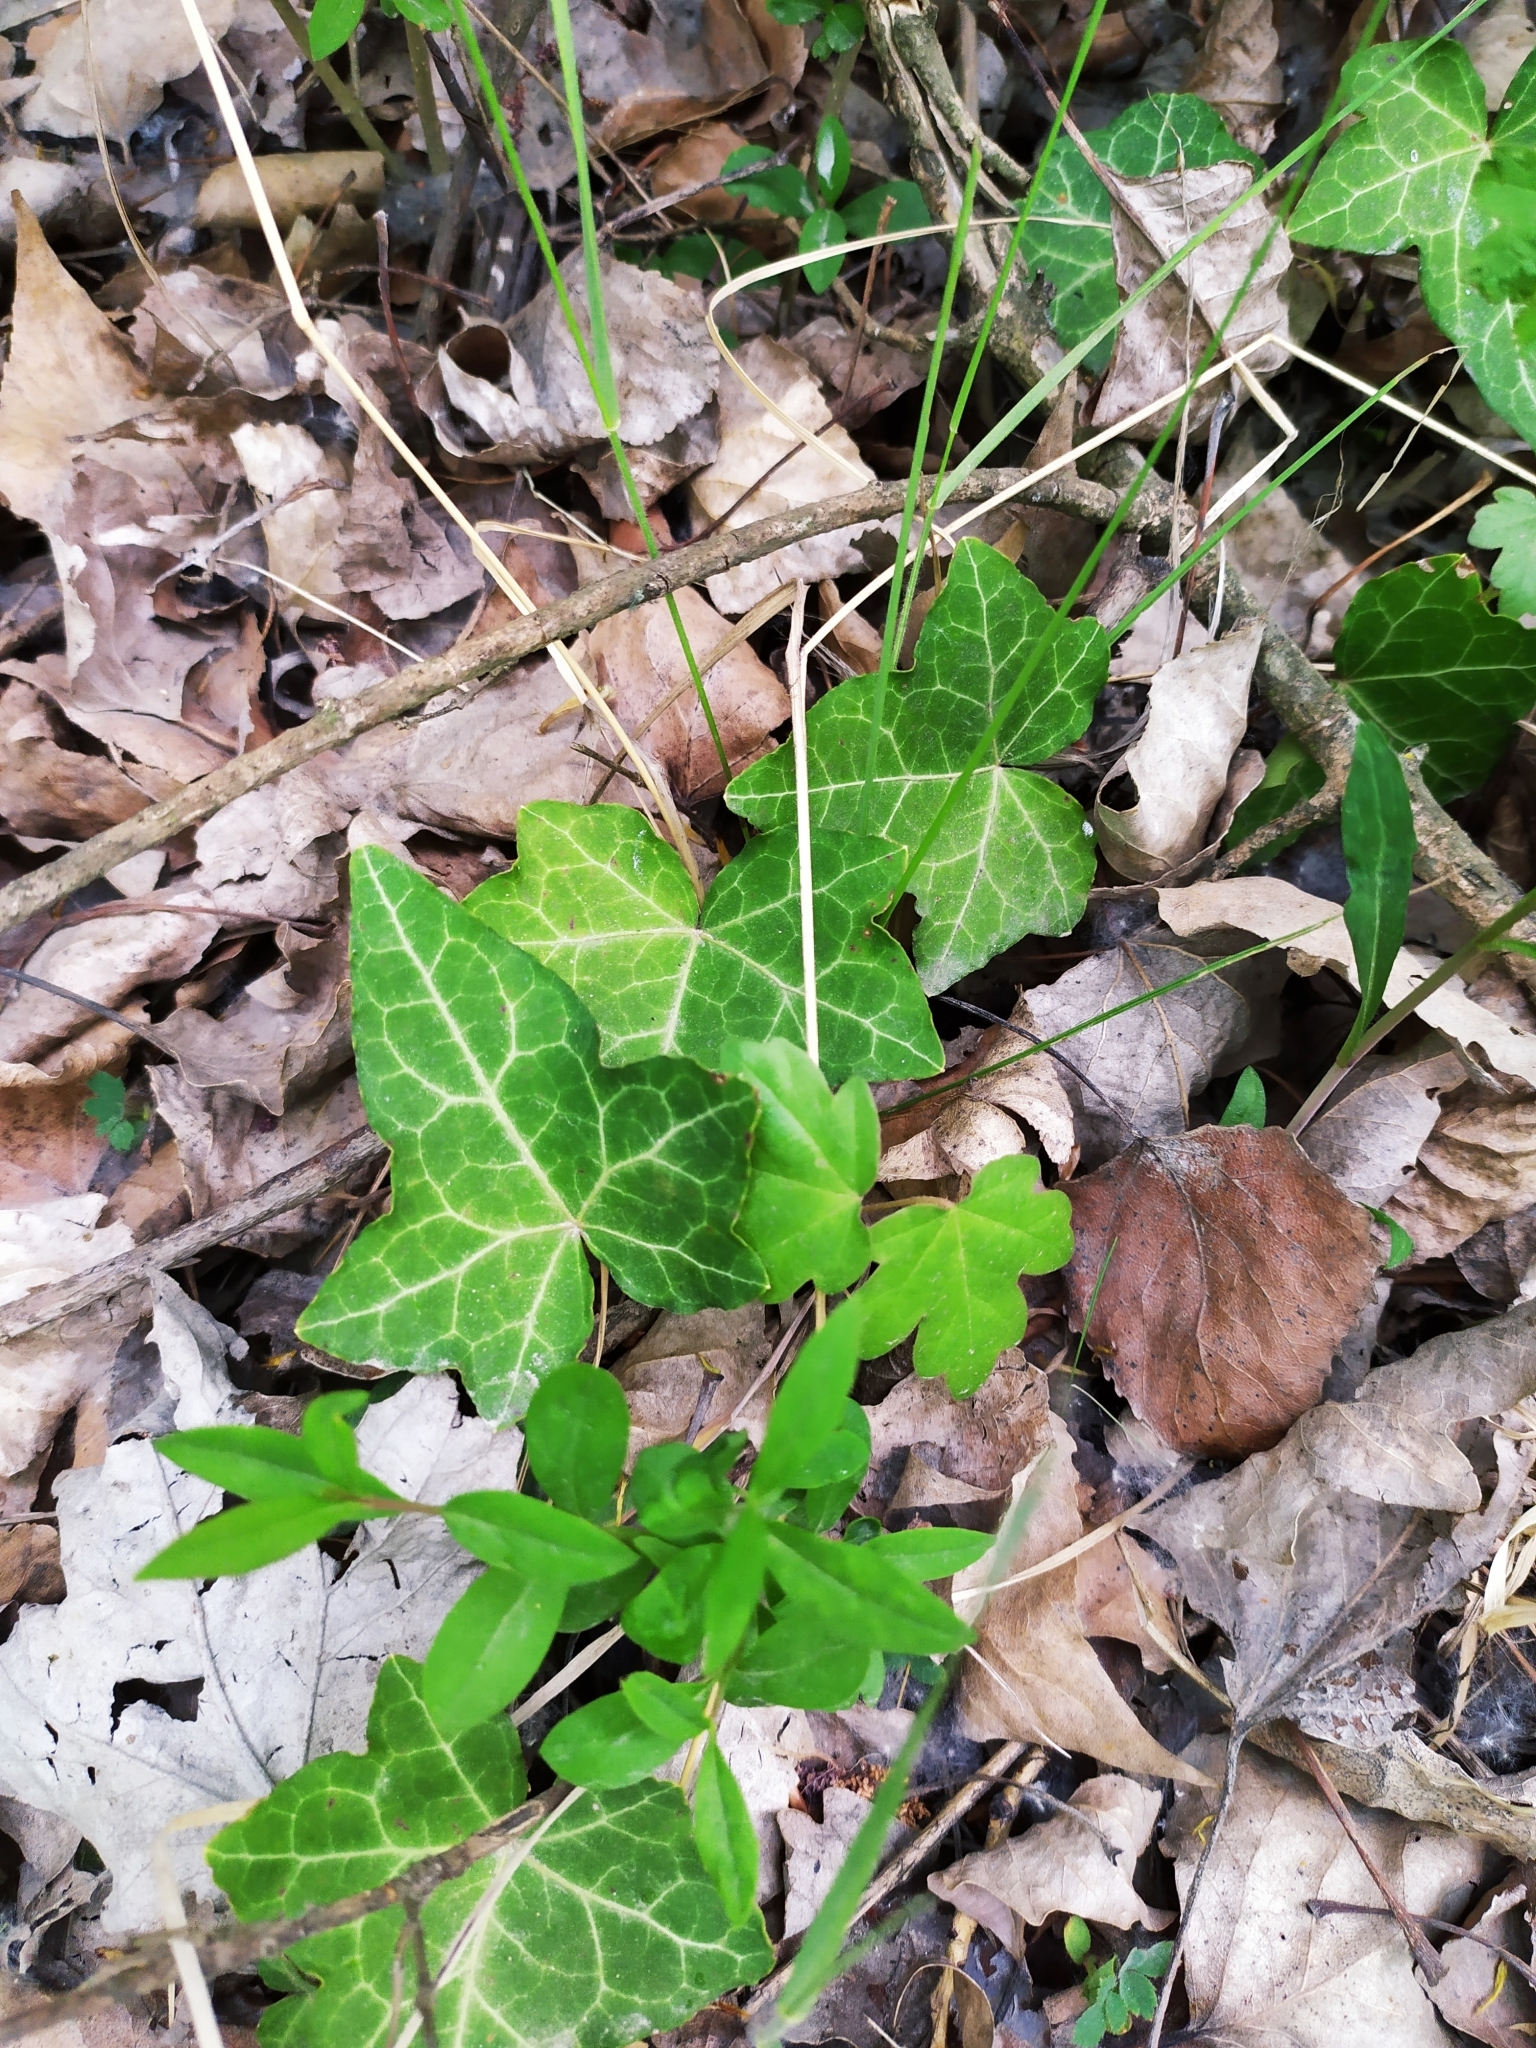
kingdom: Plantae
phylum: Tracheophyta
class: Magnoliopsida
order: Apiales
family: Araliaceae
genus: Hedera
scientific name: Hedera helix
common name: Ivy
